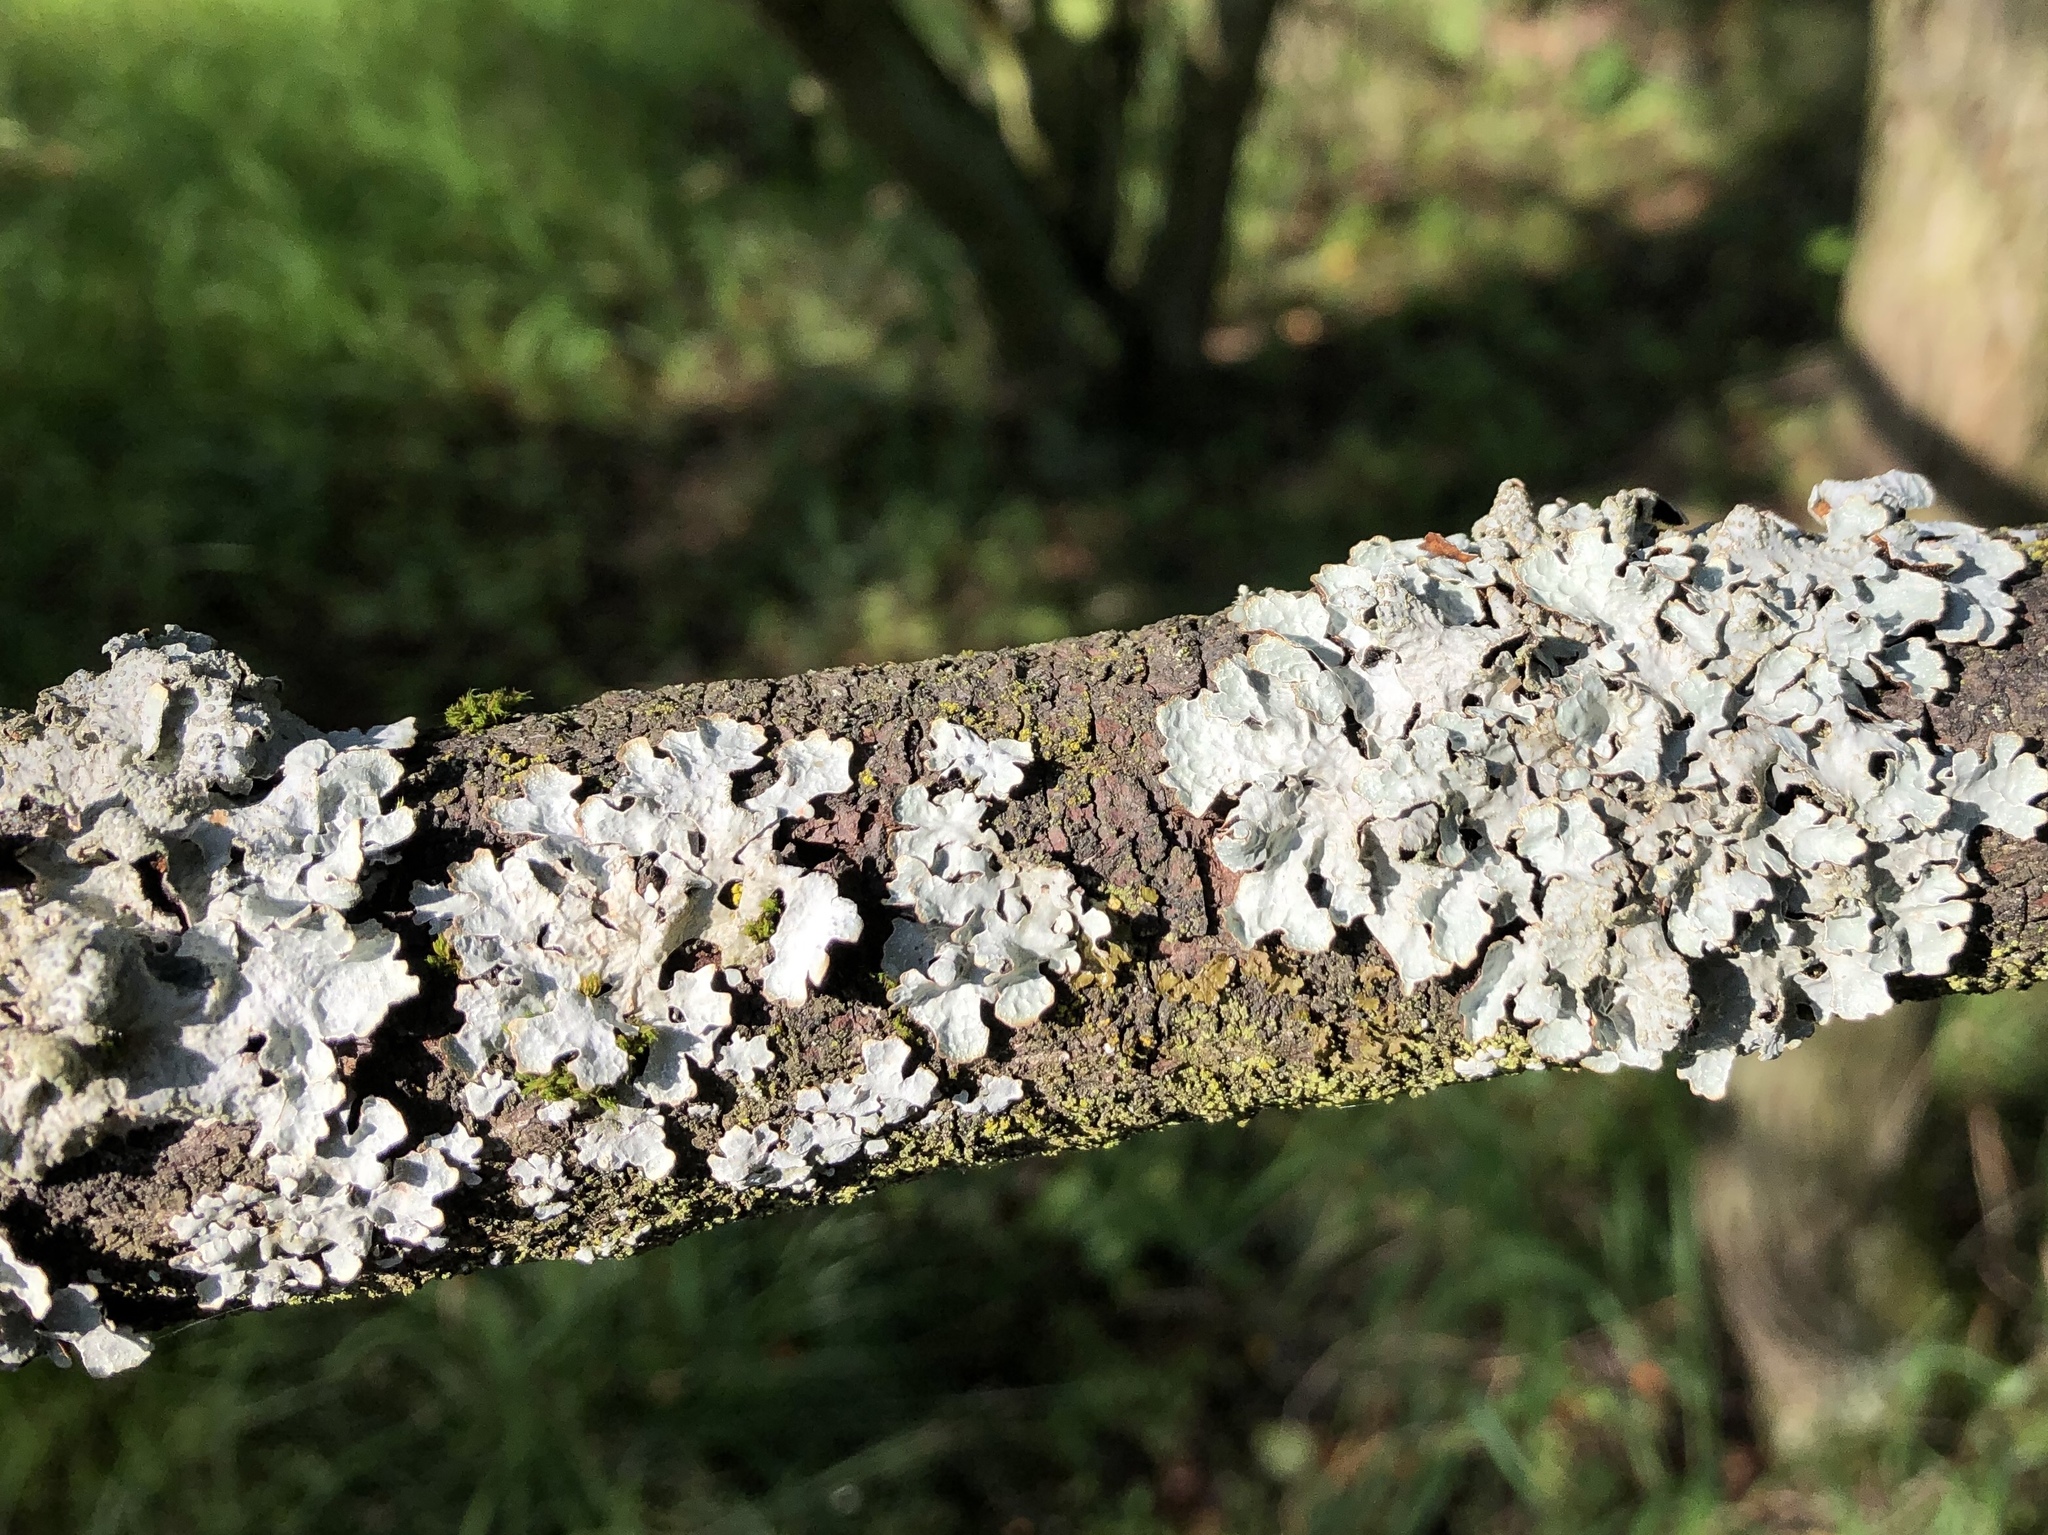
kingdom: Fungi
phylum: Ascomycota
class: Lecanoromycetes
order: Lecanorales
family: Parmeliaceae
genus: Parmelia
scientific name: Parmelia sulcata
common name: Netted shield lichen
